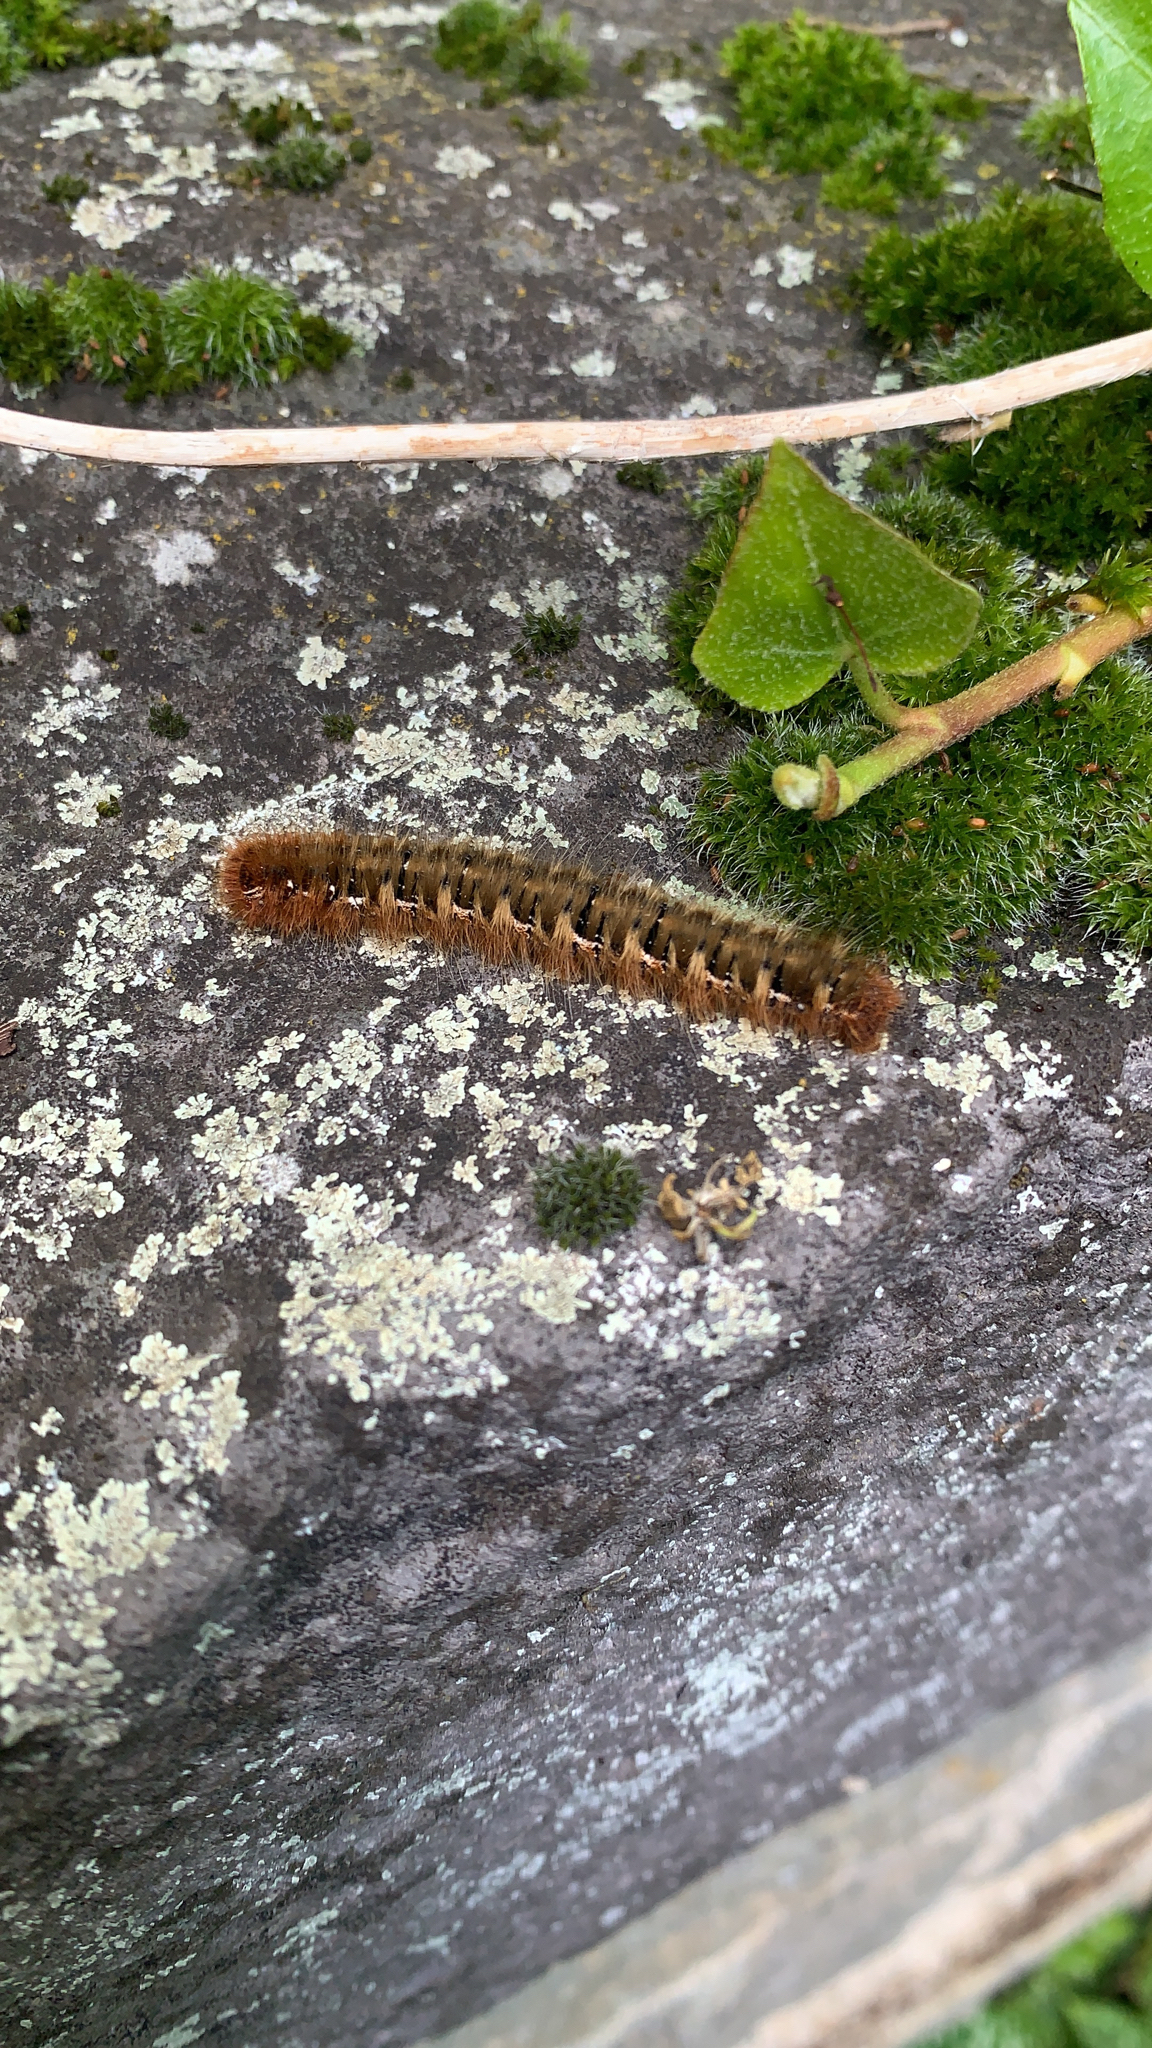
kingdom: Animalia
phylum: Arthropoda
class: Insecta
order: Lepidoptera
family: Lasiocampidae
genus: Lasiocampa
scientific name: Lasiocampa quercus
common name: Oak eggar
